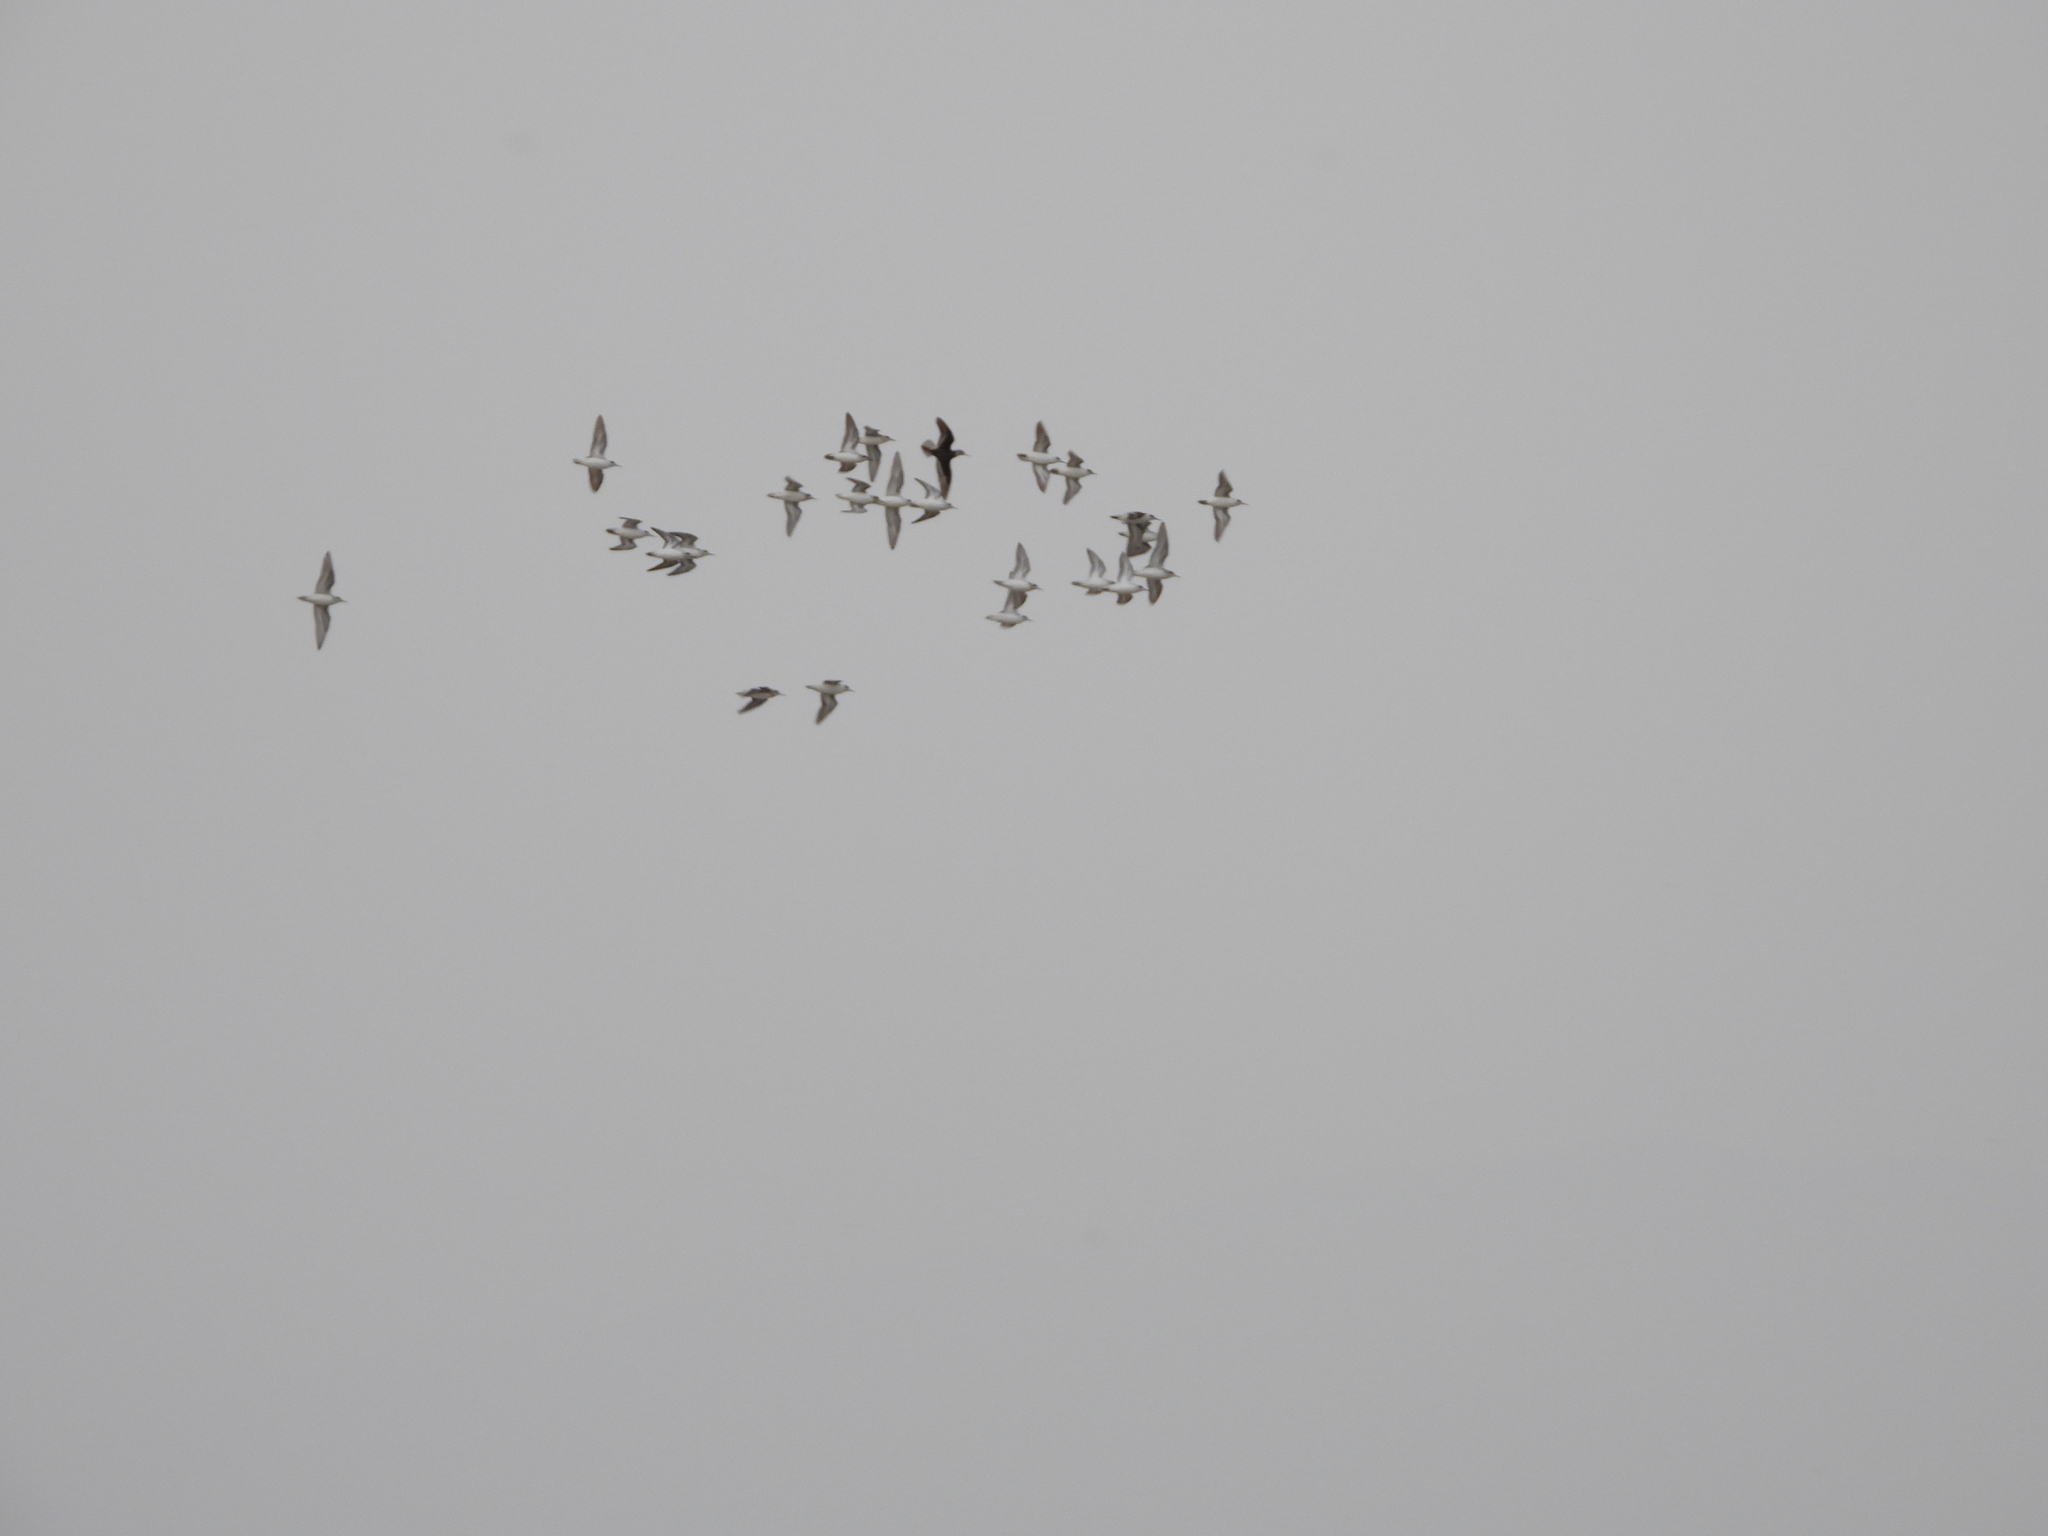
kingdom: Animalia
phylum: Chordata
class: Aves
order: Charadriiformes
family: Scolopacidae
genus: Phalaropus
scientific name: Phalaropus lobatus
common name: Red-necked phalarope
